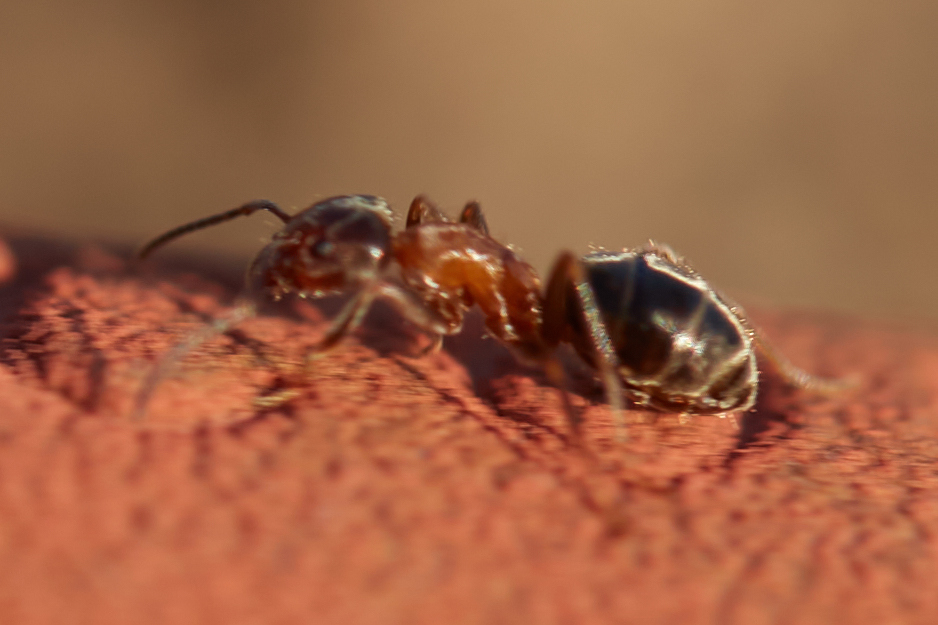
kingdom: Animalia
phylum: Arthropoda
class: Insecta
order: Hymenoptera
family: Formicidae
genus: Liometopum
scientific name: Liometopum occidentale
